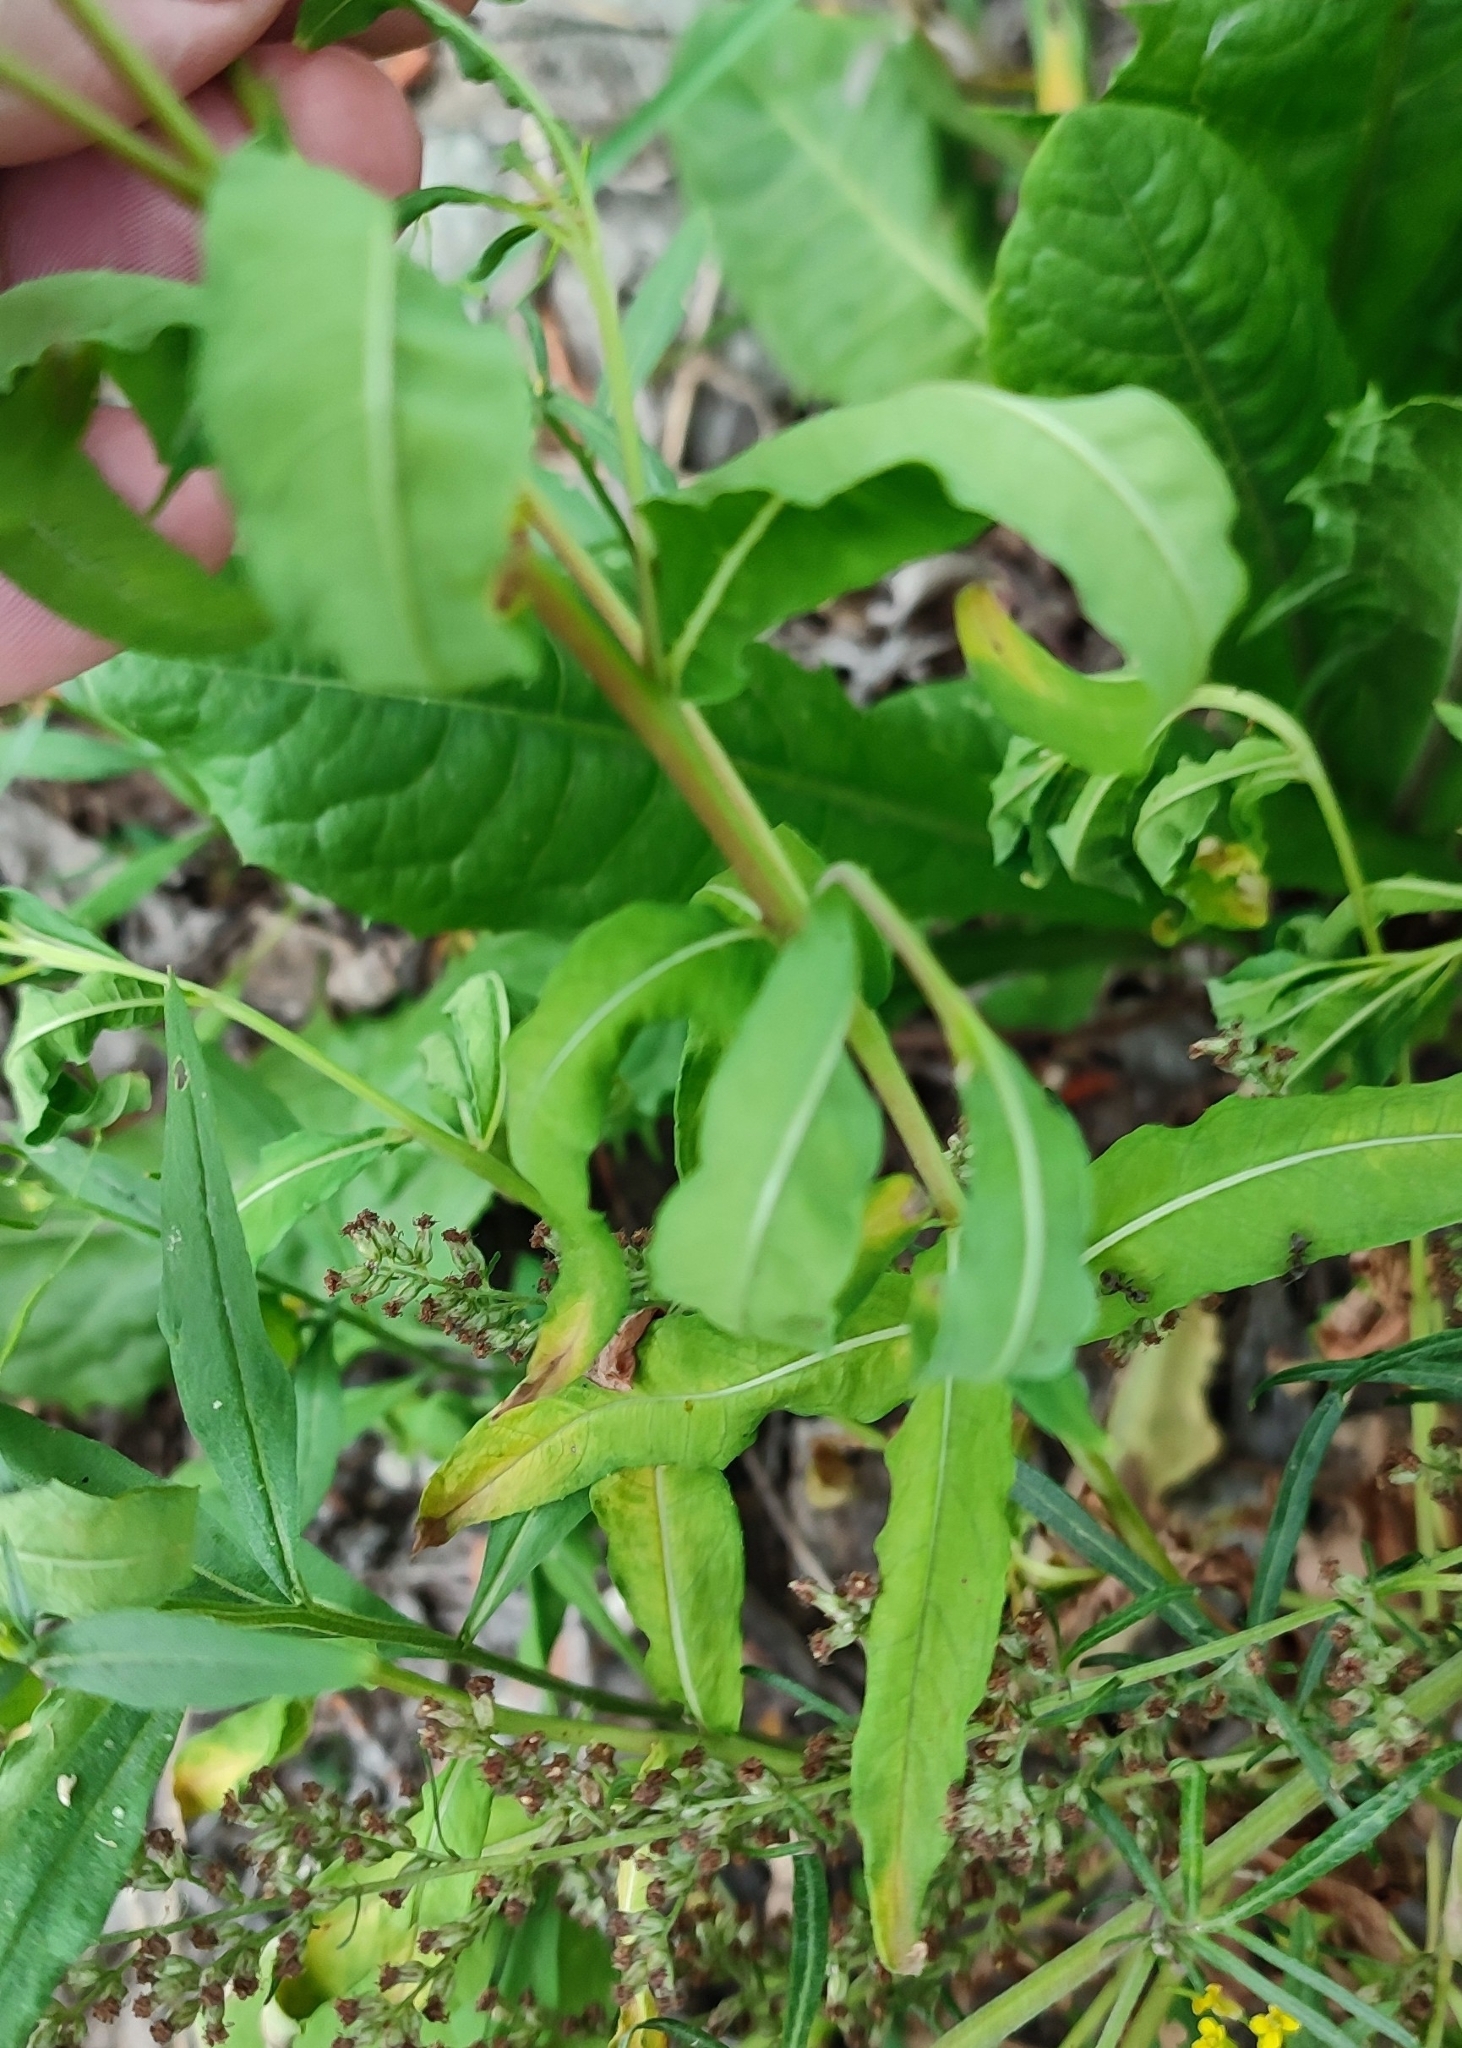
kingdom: Plantae
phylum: Tracheophyta
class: Magnoliopsida
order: Myrtales
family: Onagraceae
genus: Chamaenerion
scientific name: Chamaenerion angustifolium
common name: Fireweed
